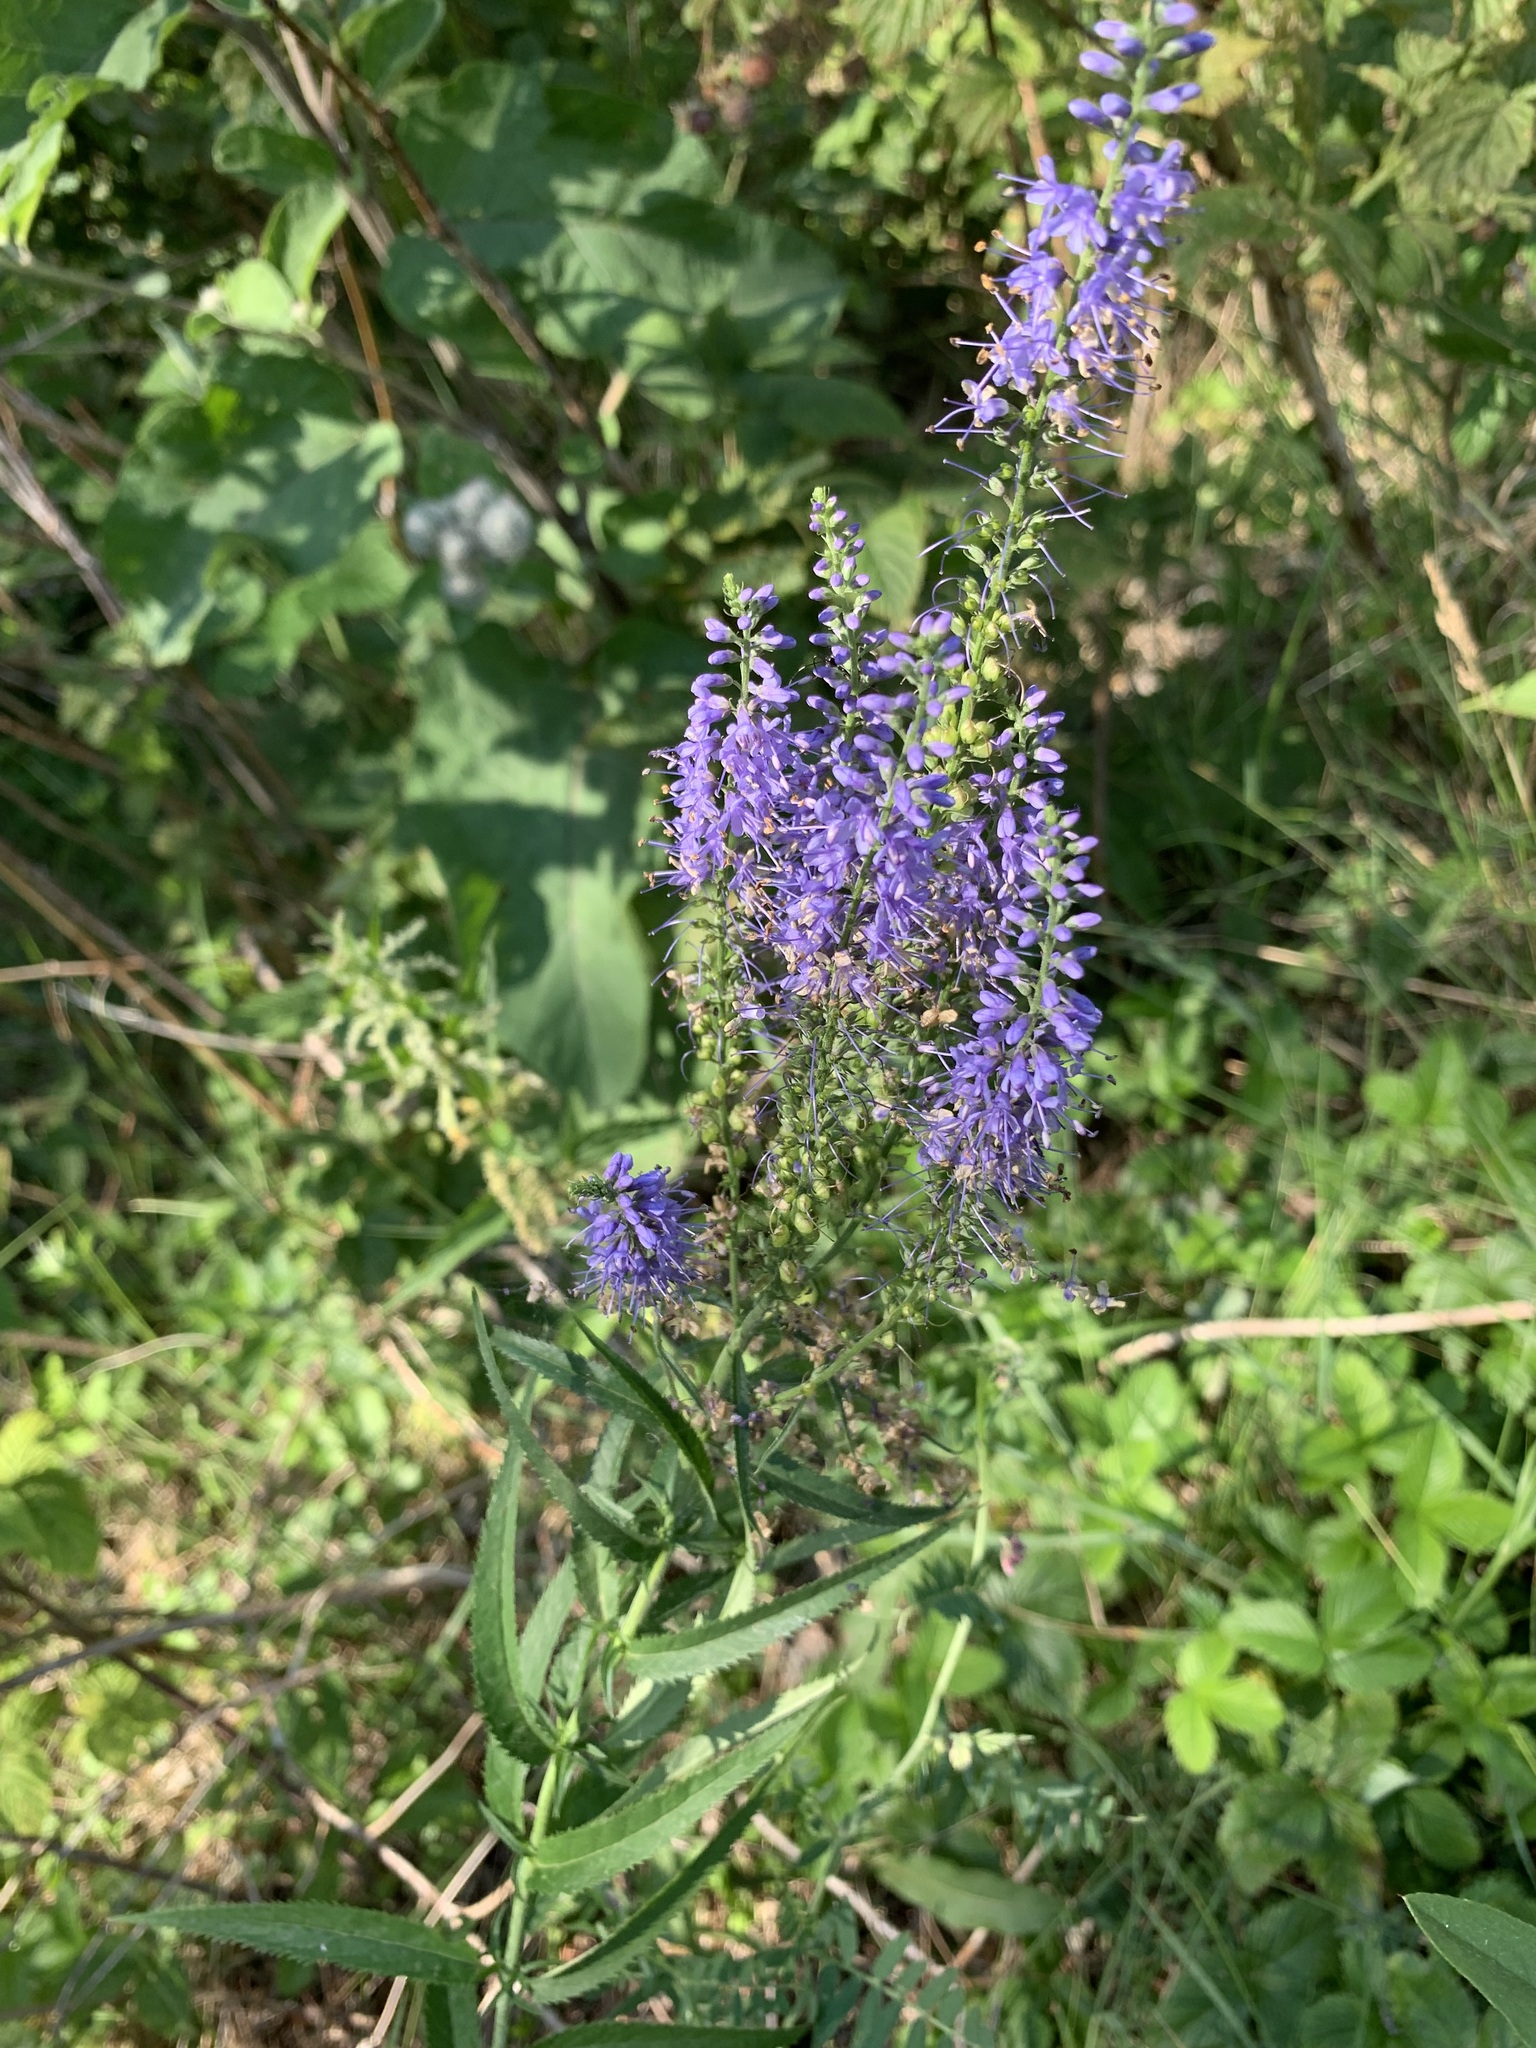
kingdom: Plantae
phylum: Tracheophyta
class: Magnoliopsida
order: Lamiales
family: Plantaginaceae
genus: Veronica
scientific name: Veronica longifolia
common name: Garden speedwell
